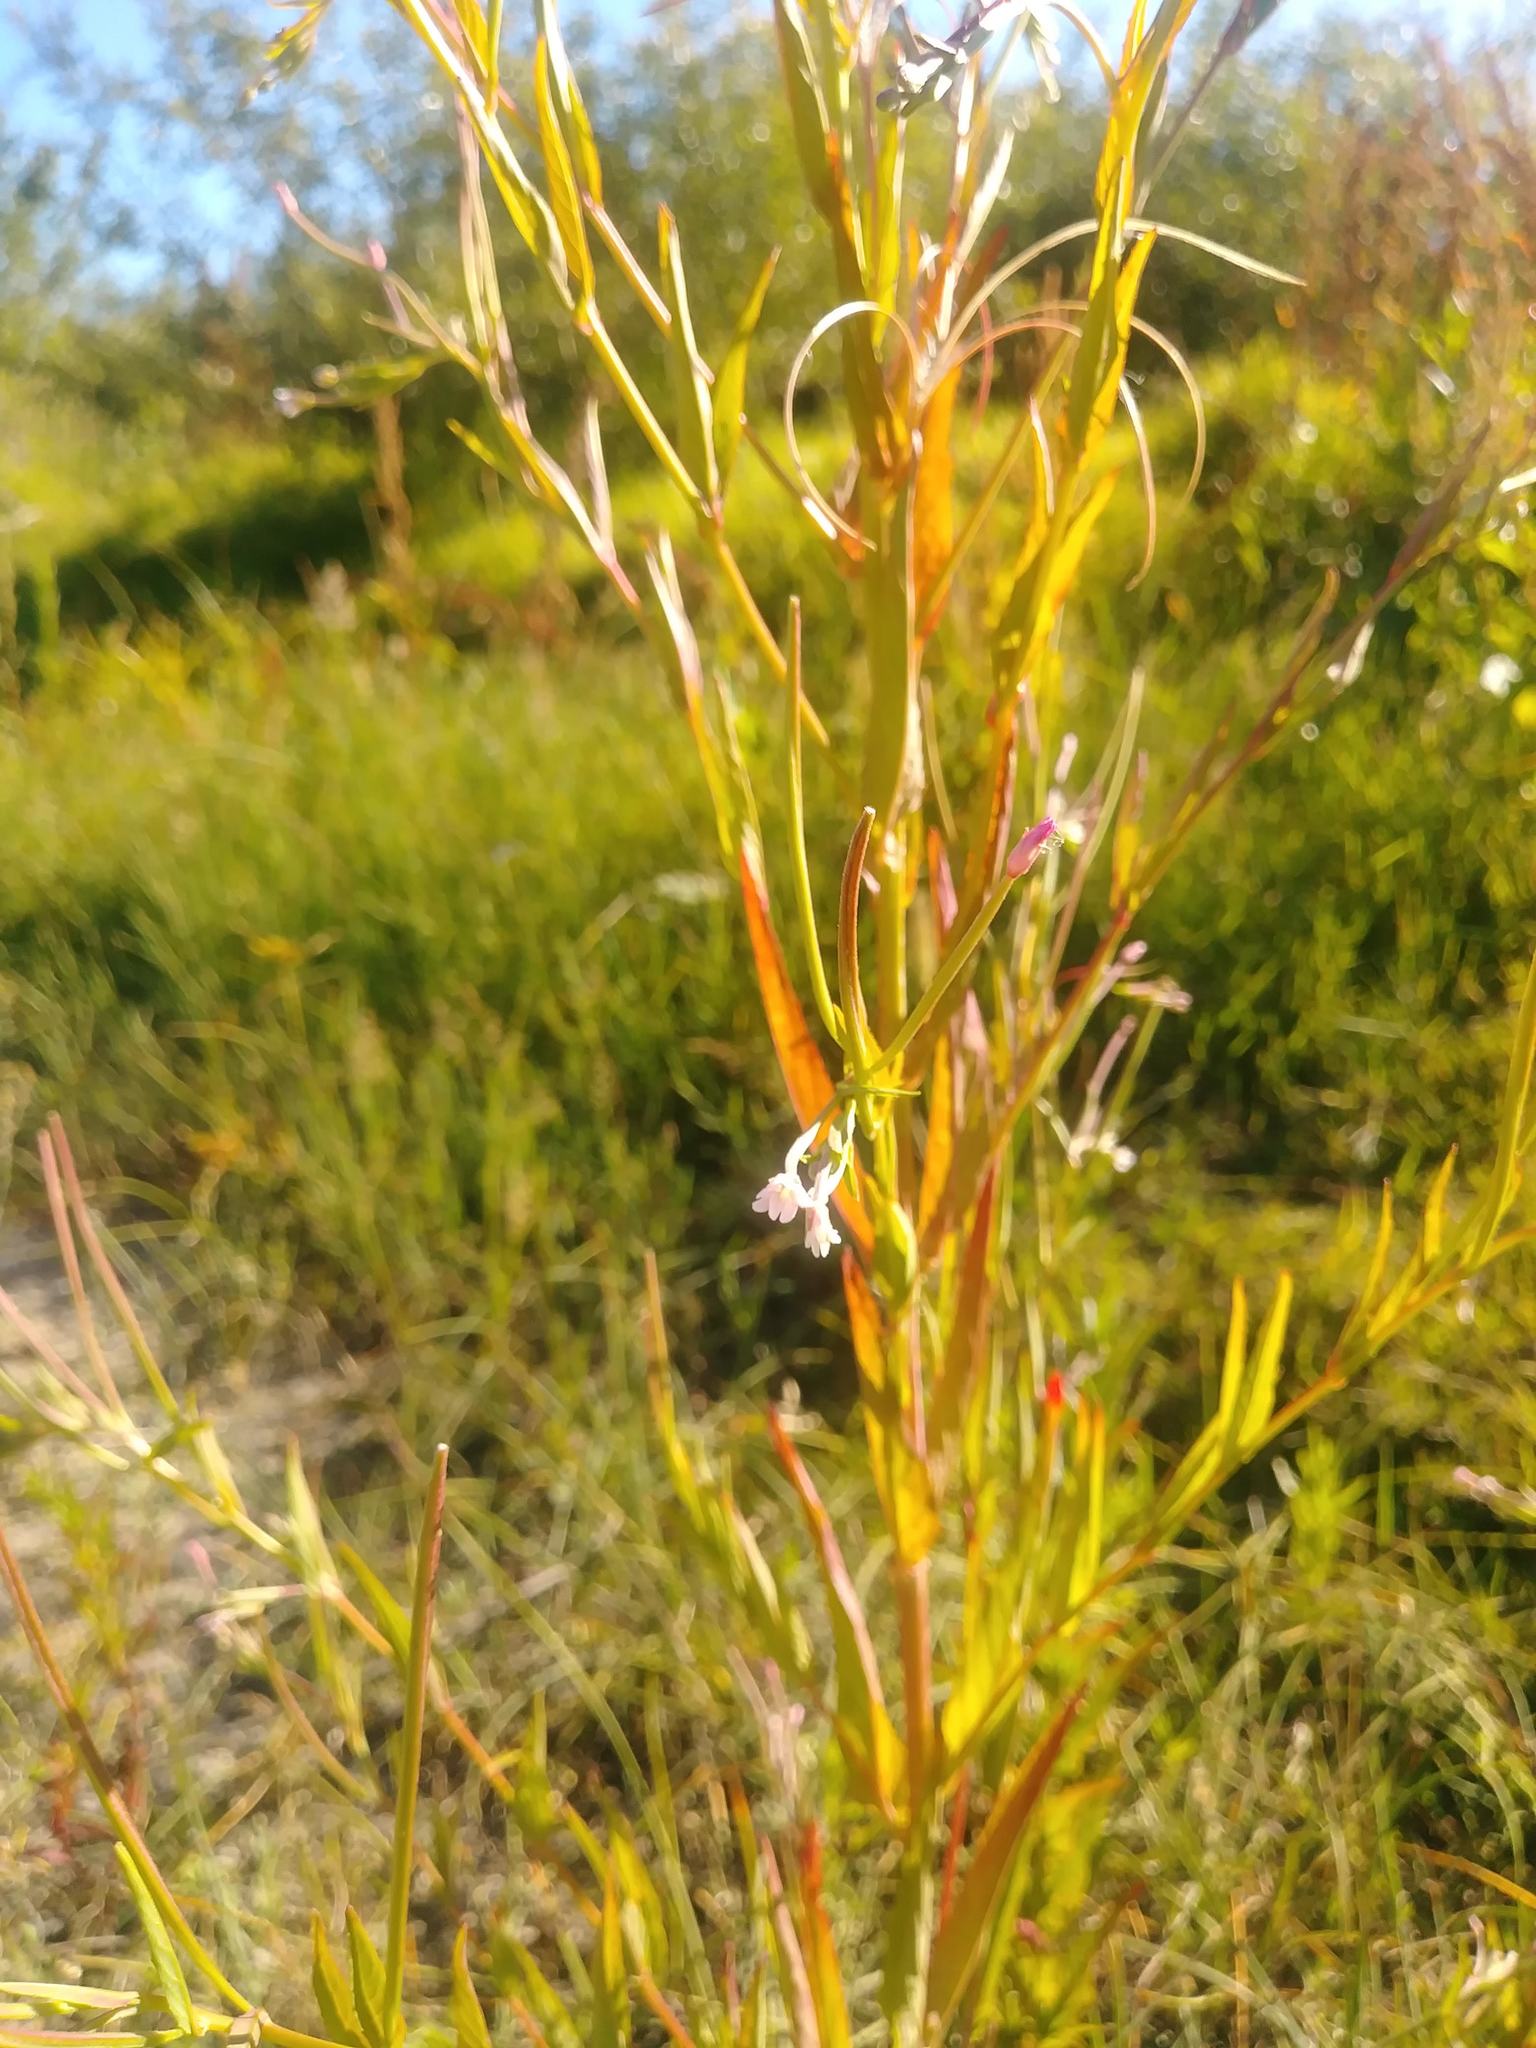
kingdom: Plantae
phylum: Tracheophyta
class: Magnoliopsida
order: Myrtales
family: Onagraceae
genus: Epilobium
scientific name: Epilobium ciliatum
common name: American willowherb
